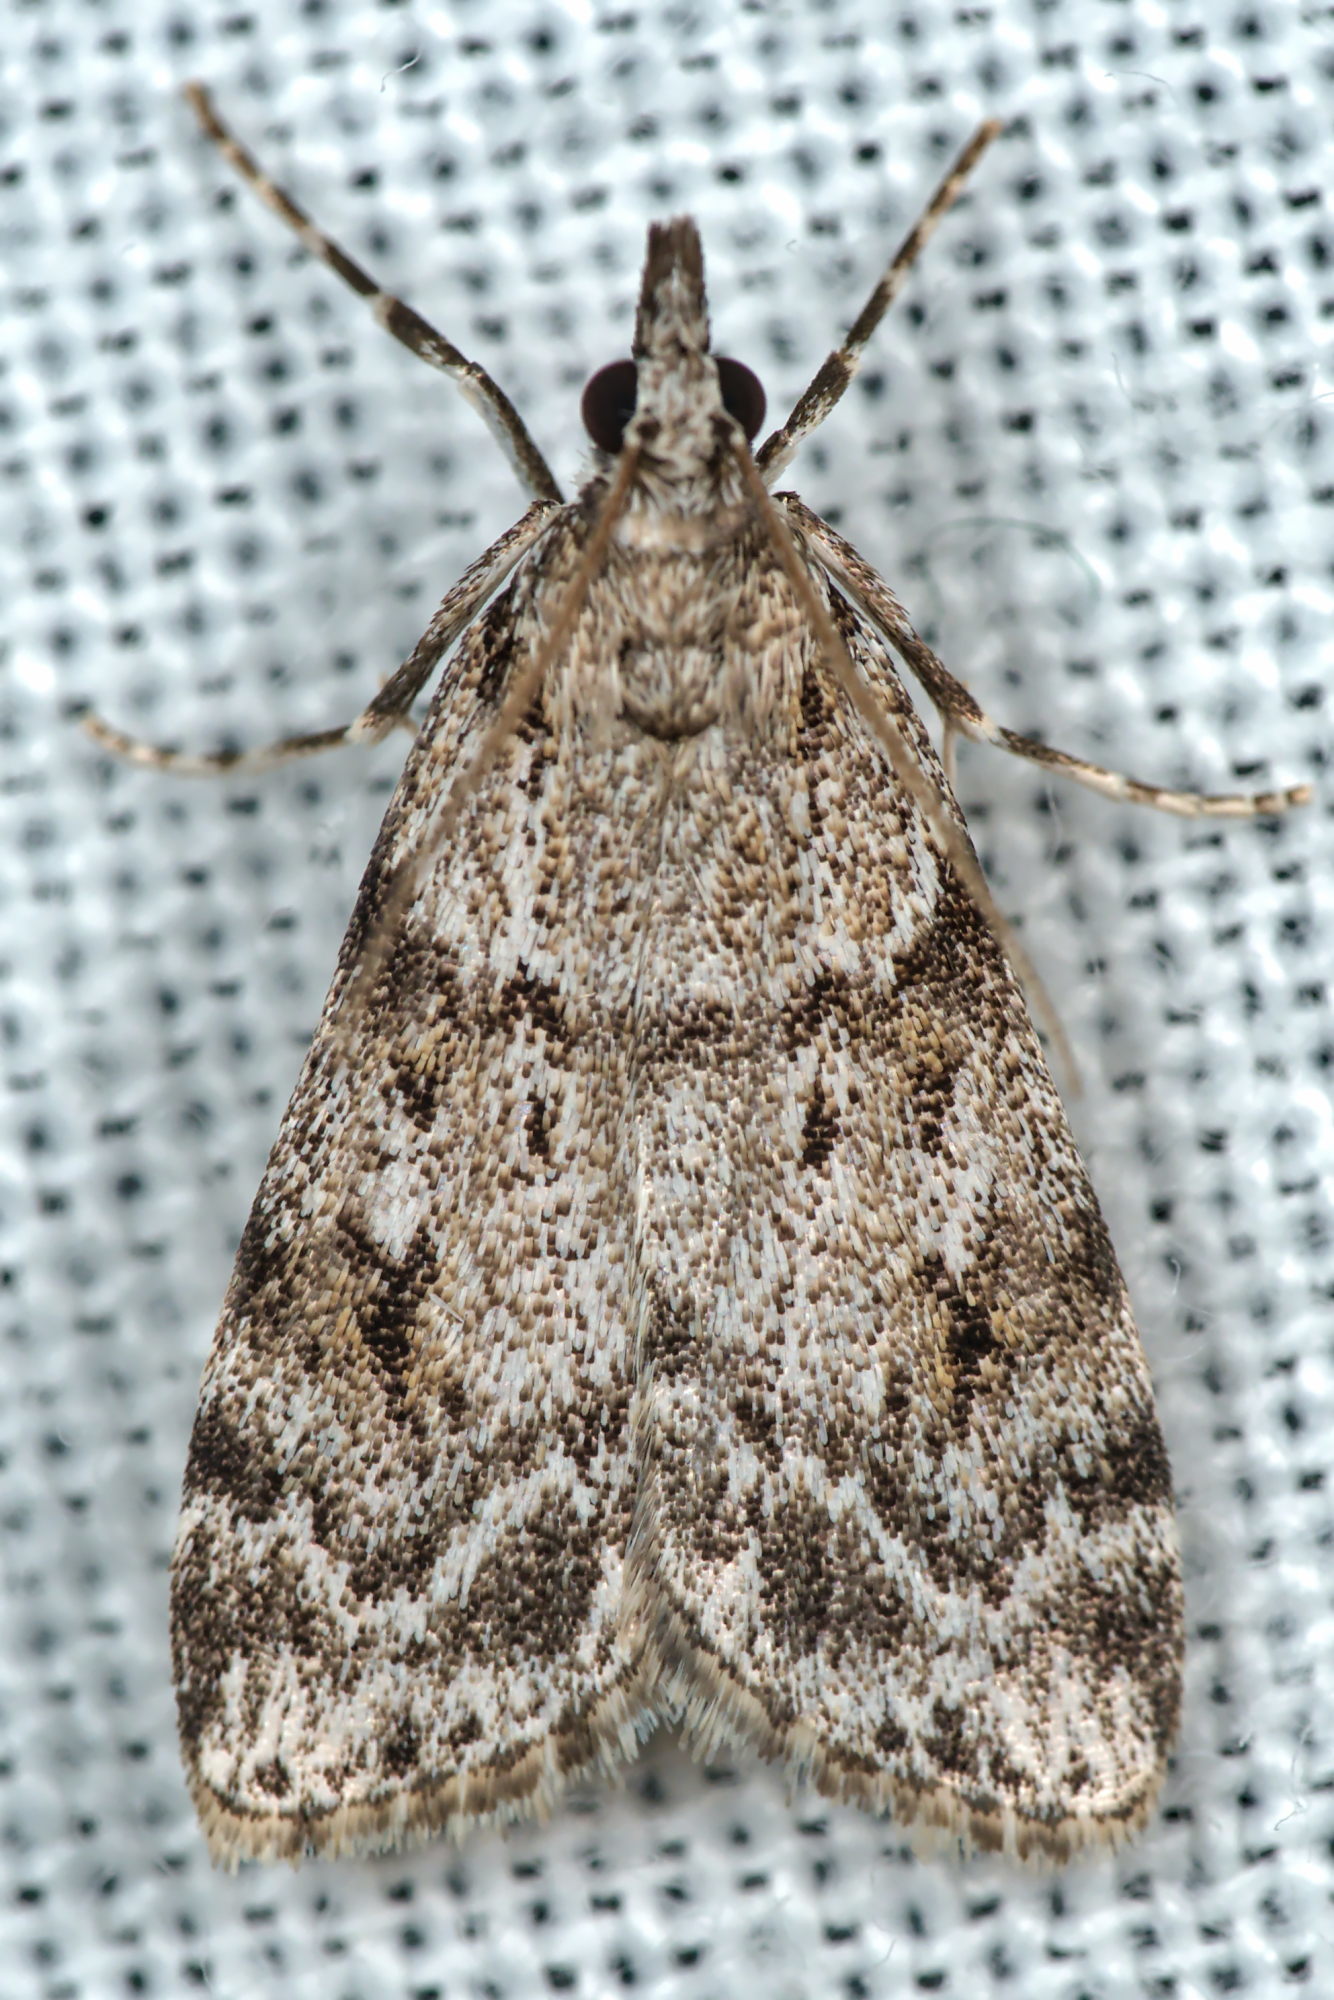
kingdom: Animalia
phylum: Arthropoda
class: Insecta
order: Lepidoptera
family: Crambidae
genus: Scoparia
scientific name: Scoparia ambigualis
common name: Common grey
